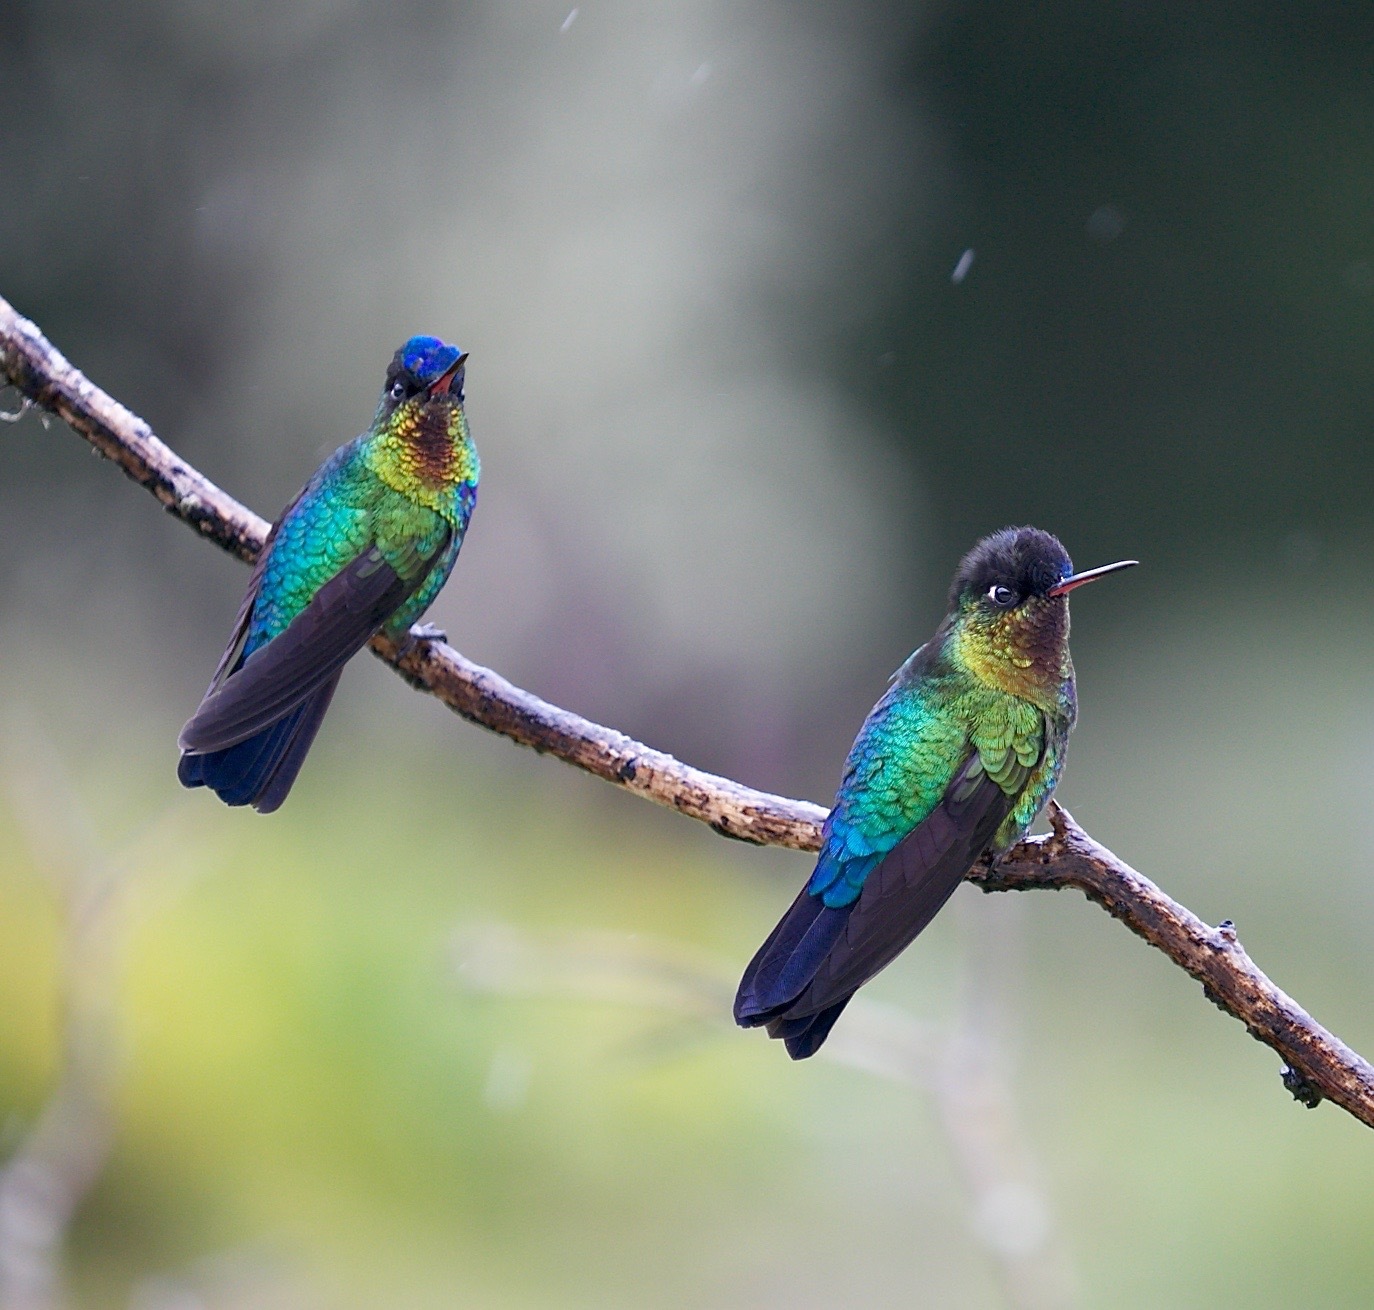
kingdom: Animalia
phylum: Chordata
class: Aves
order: Apodiformes
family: Trochilidae
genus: Panterpe
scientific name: Panterpe insignis
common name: Fiery-throated hummingbird
